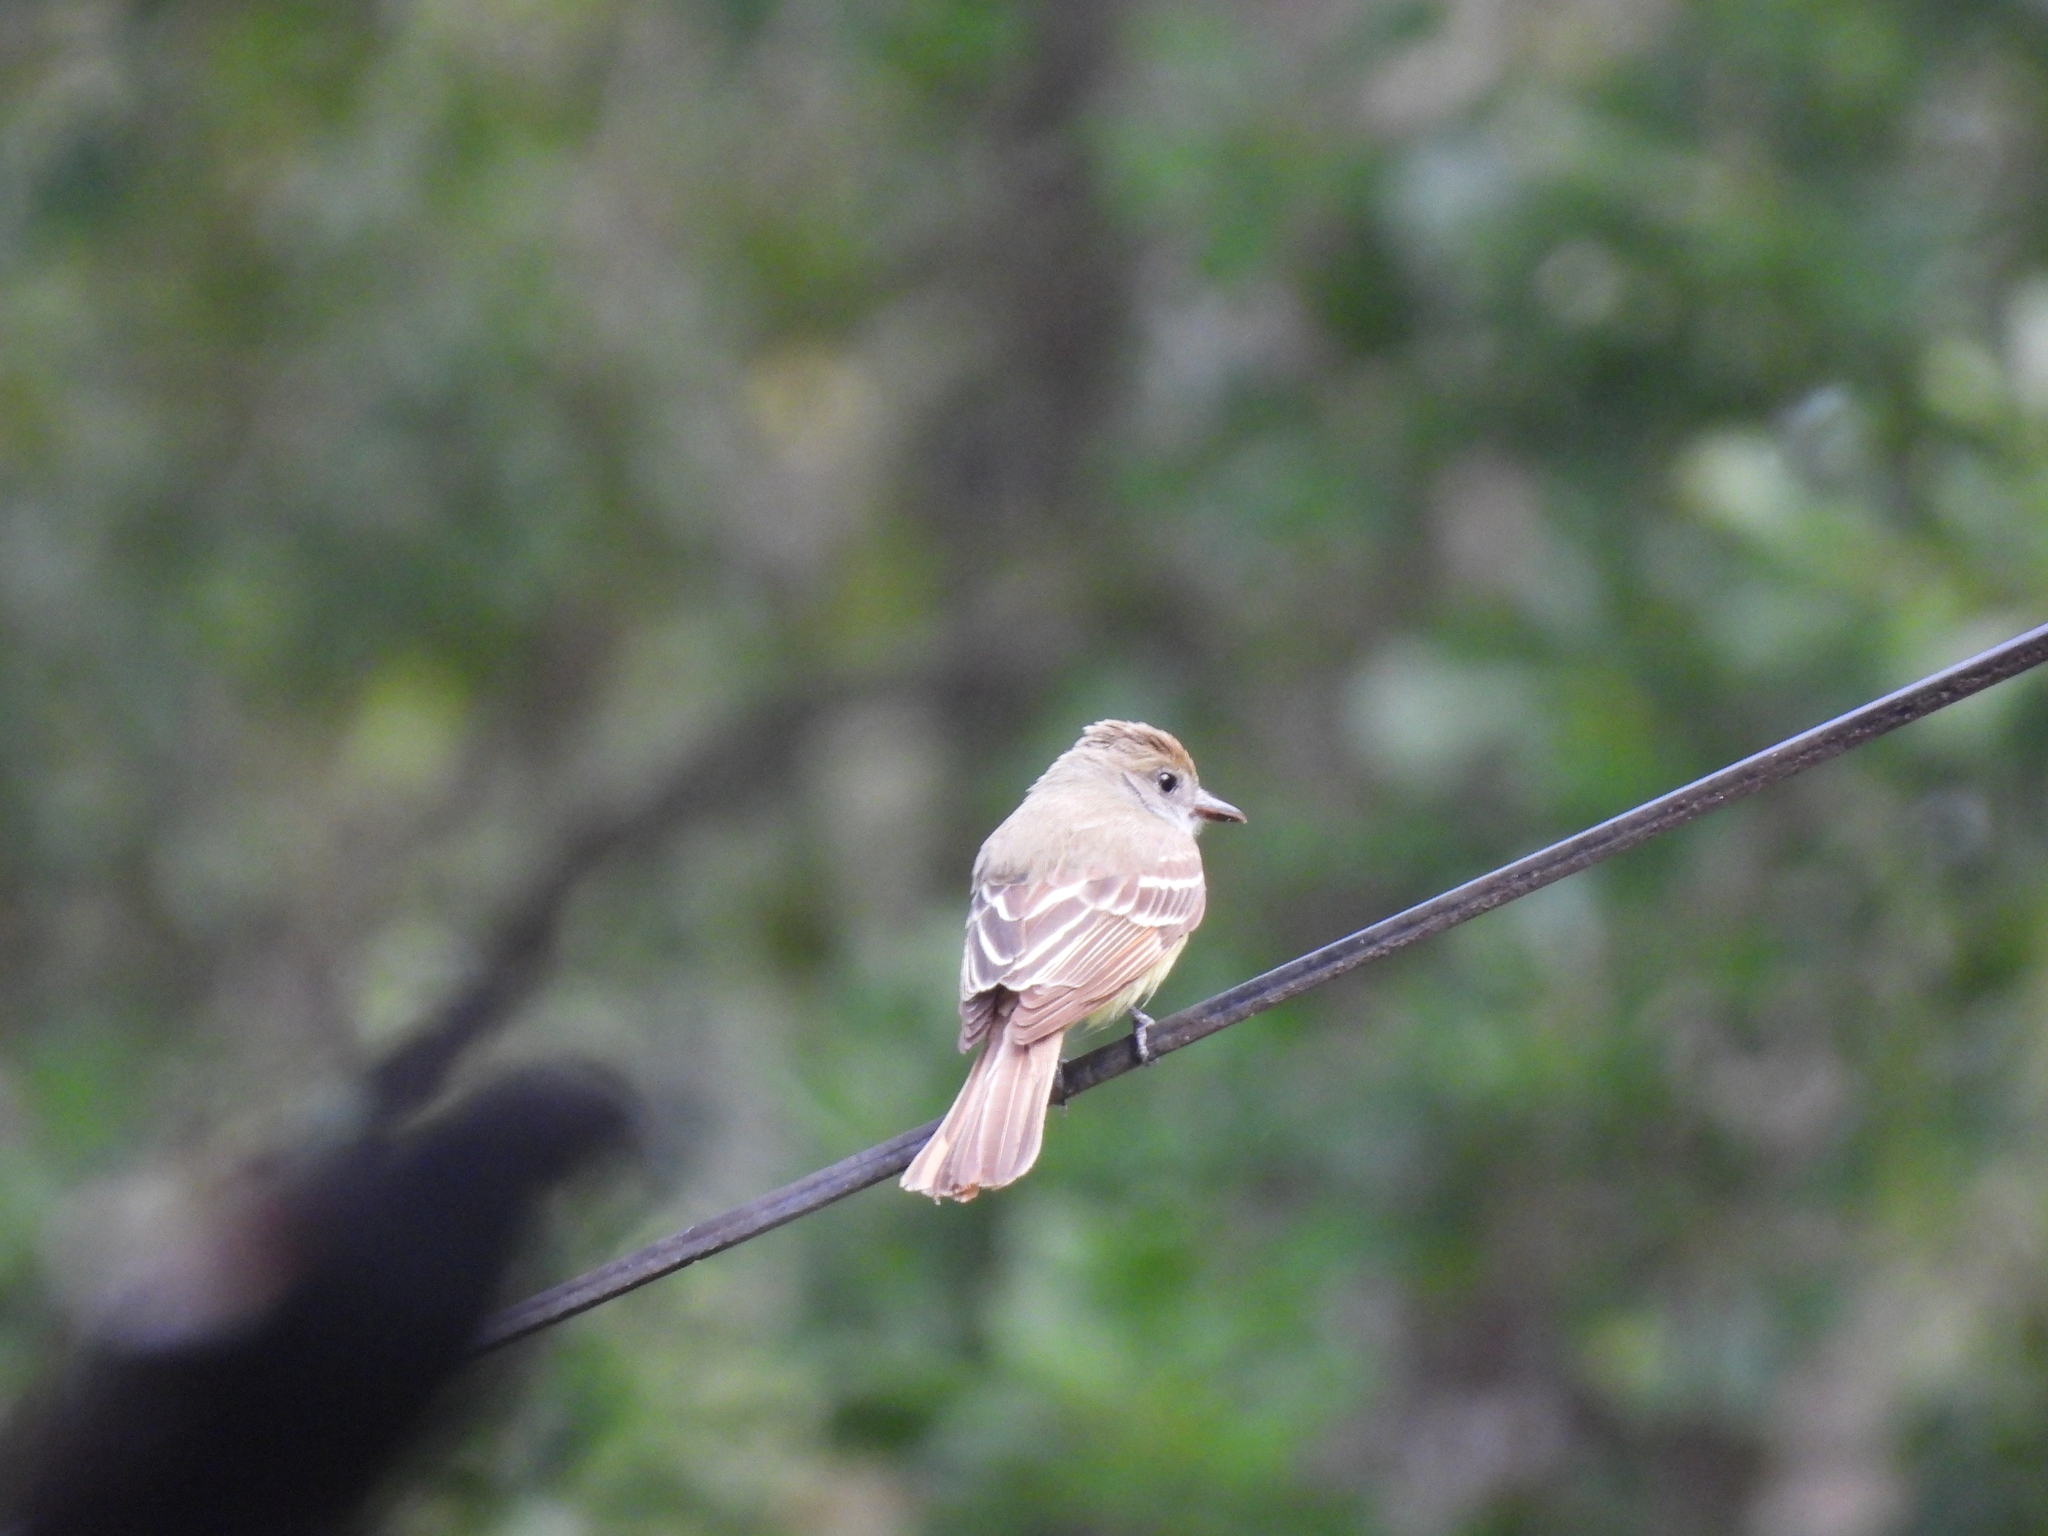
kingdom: Animalia
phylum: Chordata
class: Aves
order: Passeriformes
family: Tyrannidae
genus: Myiarchus
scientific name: Myiarchus crinitus
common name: Great crested flycatcher
